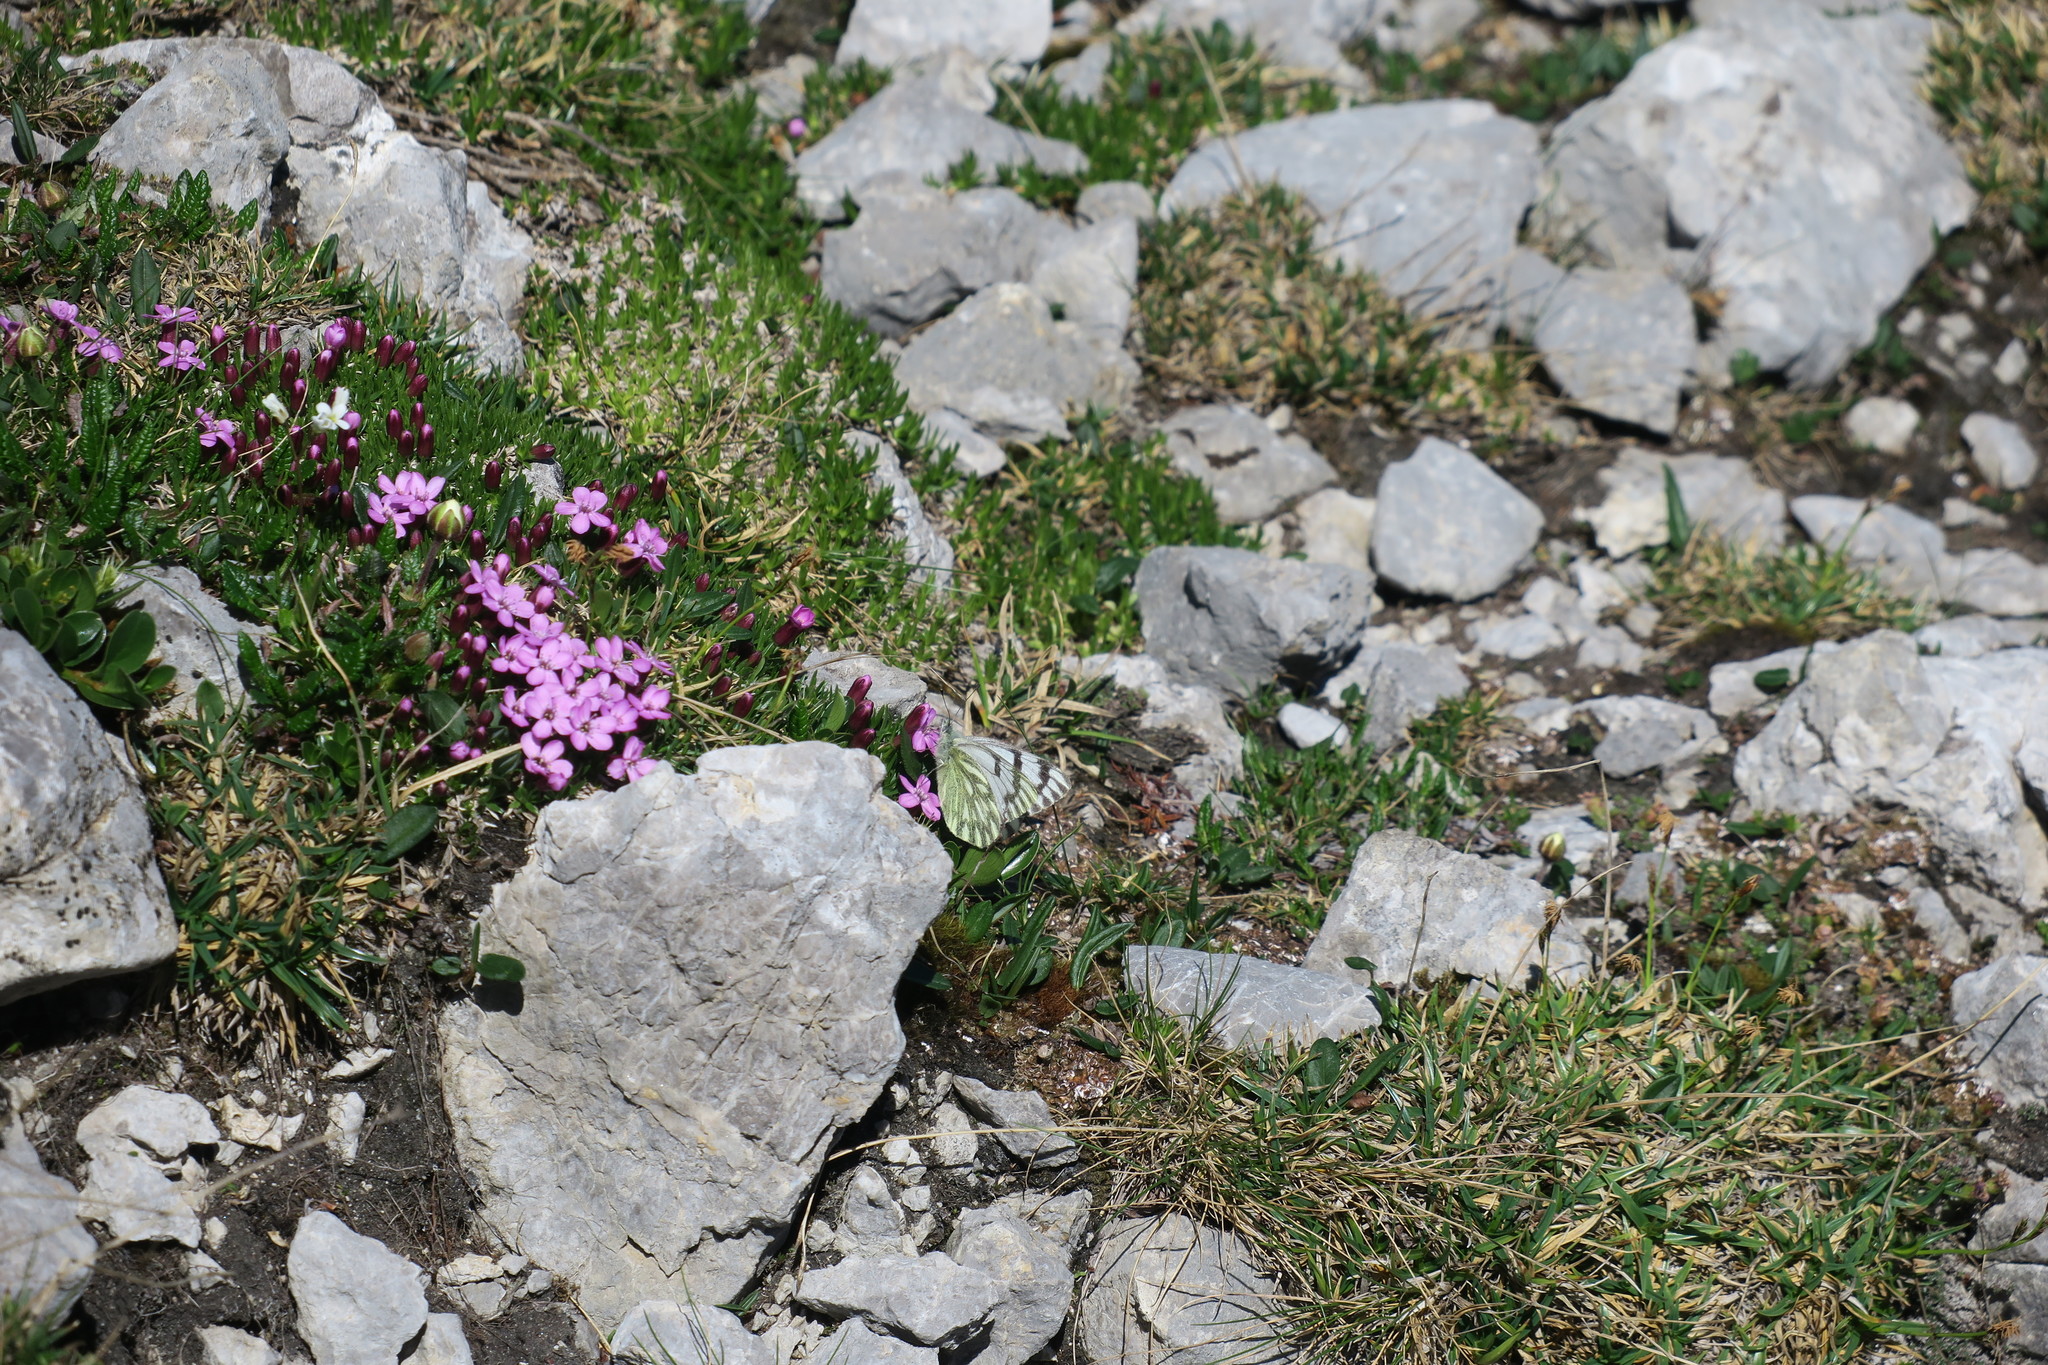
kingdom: Animalia
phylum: Arthropoda
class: Insecta
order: Lepidoptera
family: Pieridae
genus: Pontia
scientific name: Pontia callidice
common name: Peak white
